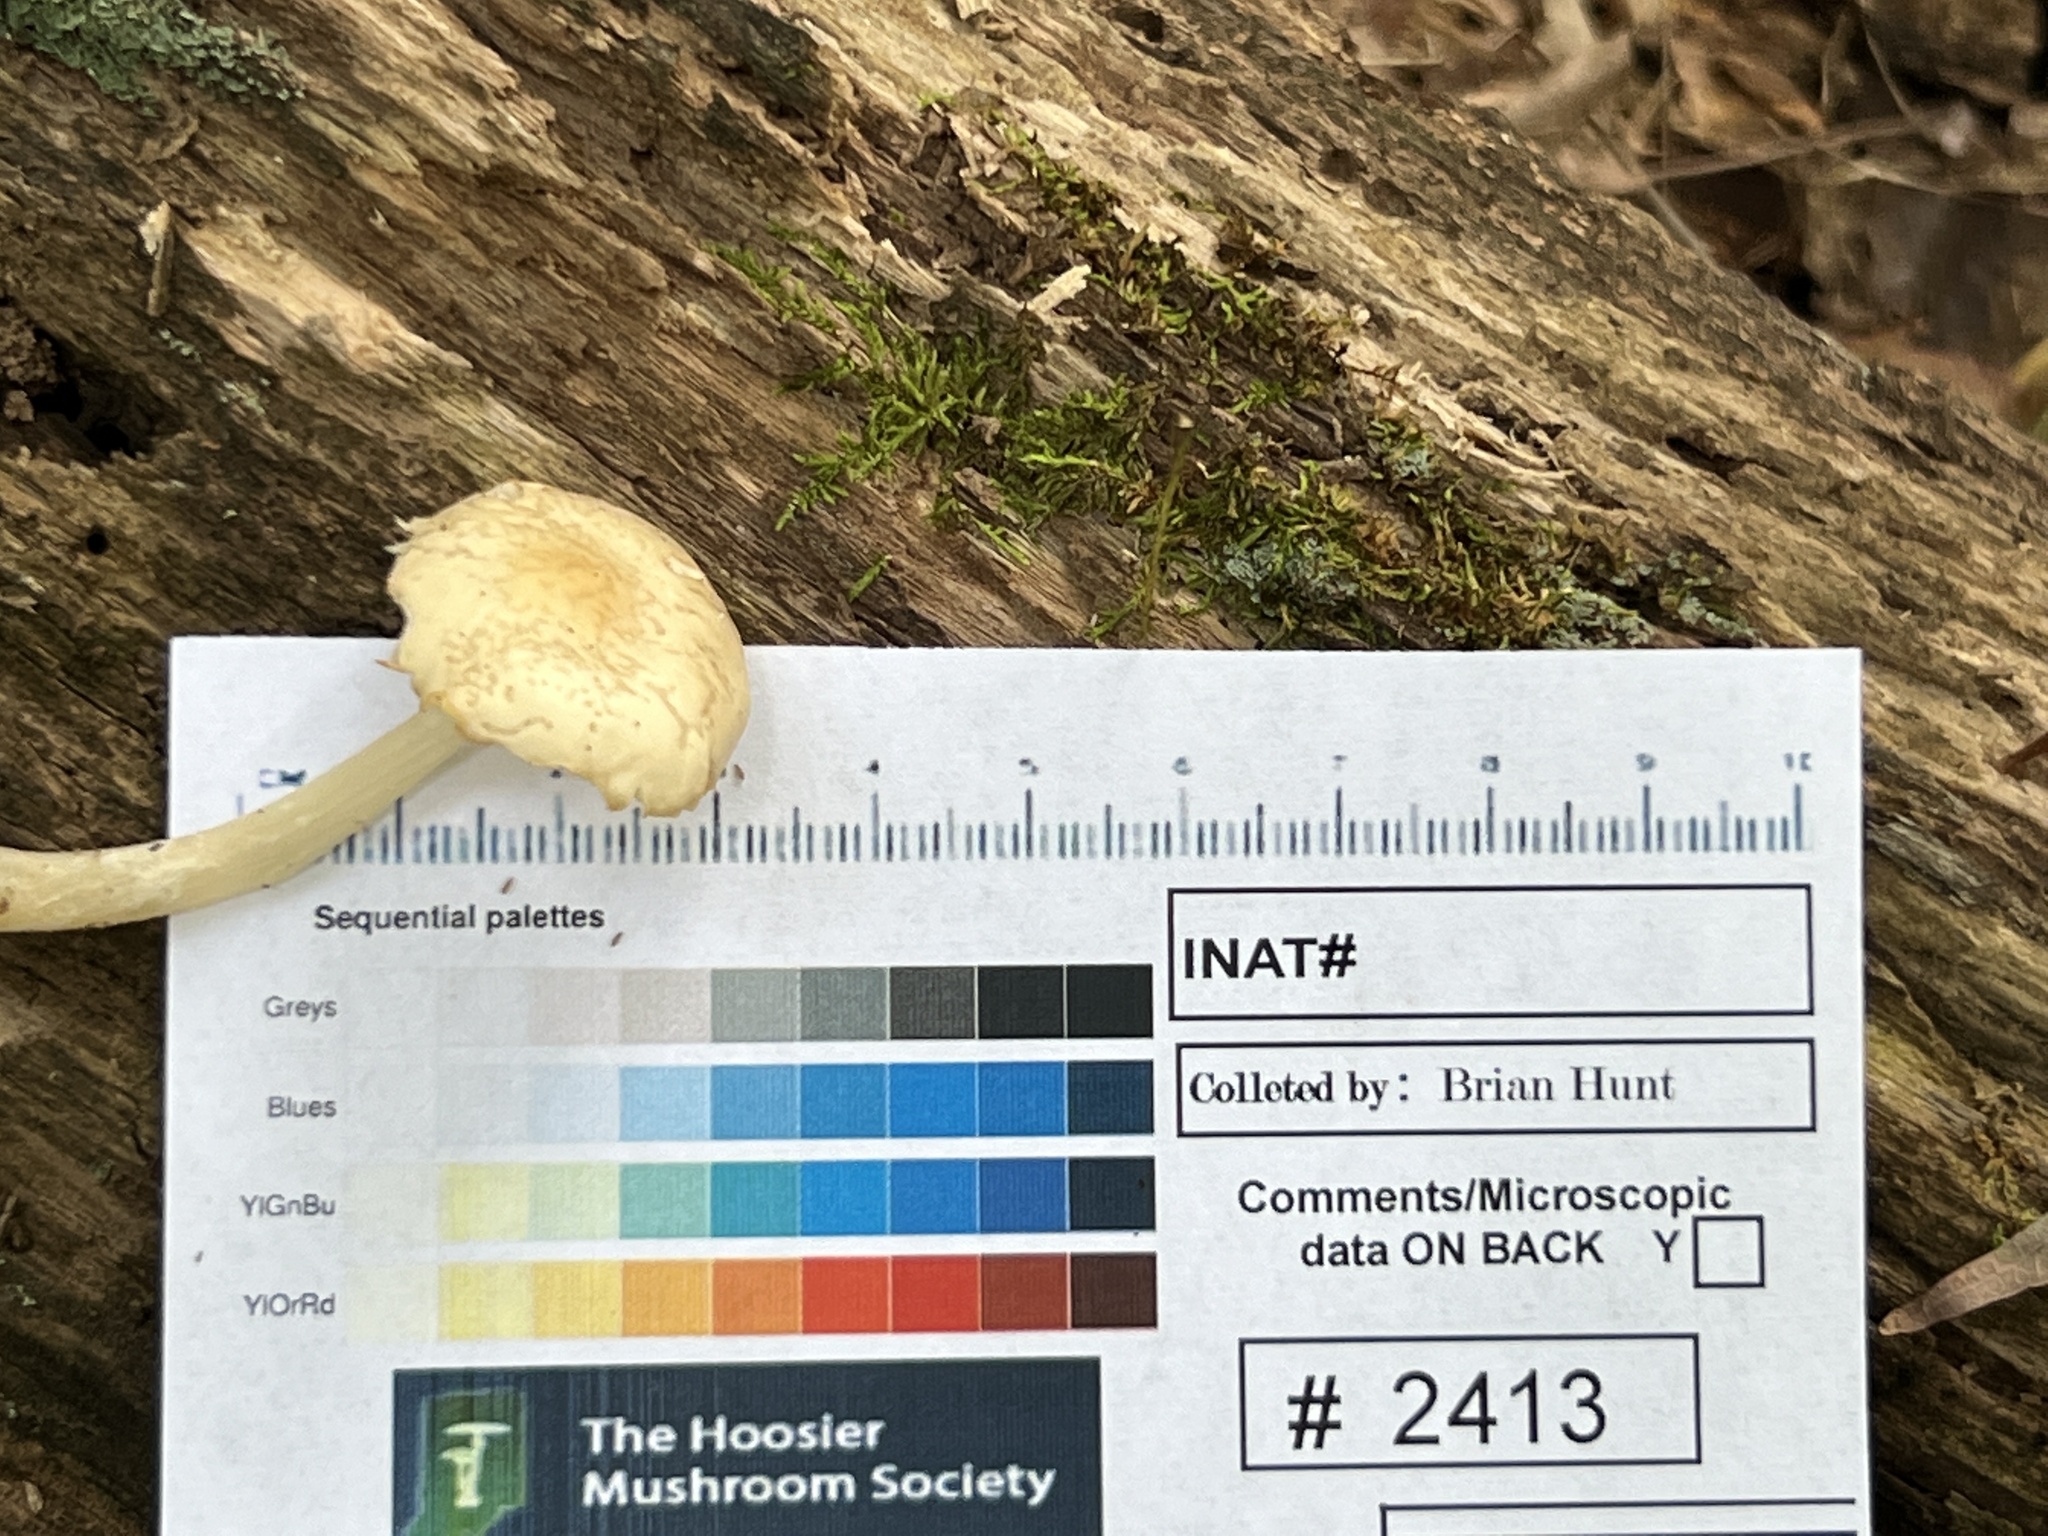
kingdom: Fungi
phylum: Basidiomycota
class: Agaricomycetes
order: Agaricales
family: Omphalotaceae
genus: Rhodocollybia
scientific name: Rhodocollybia butyracea
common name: Butter cap
